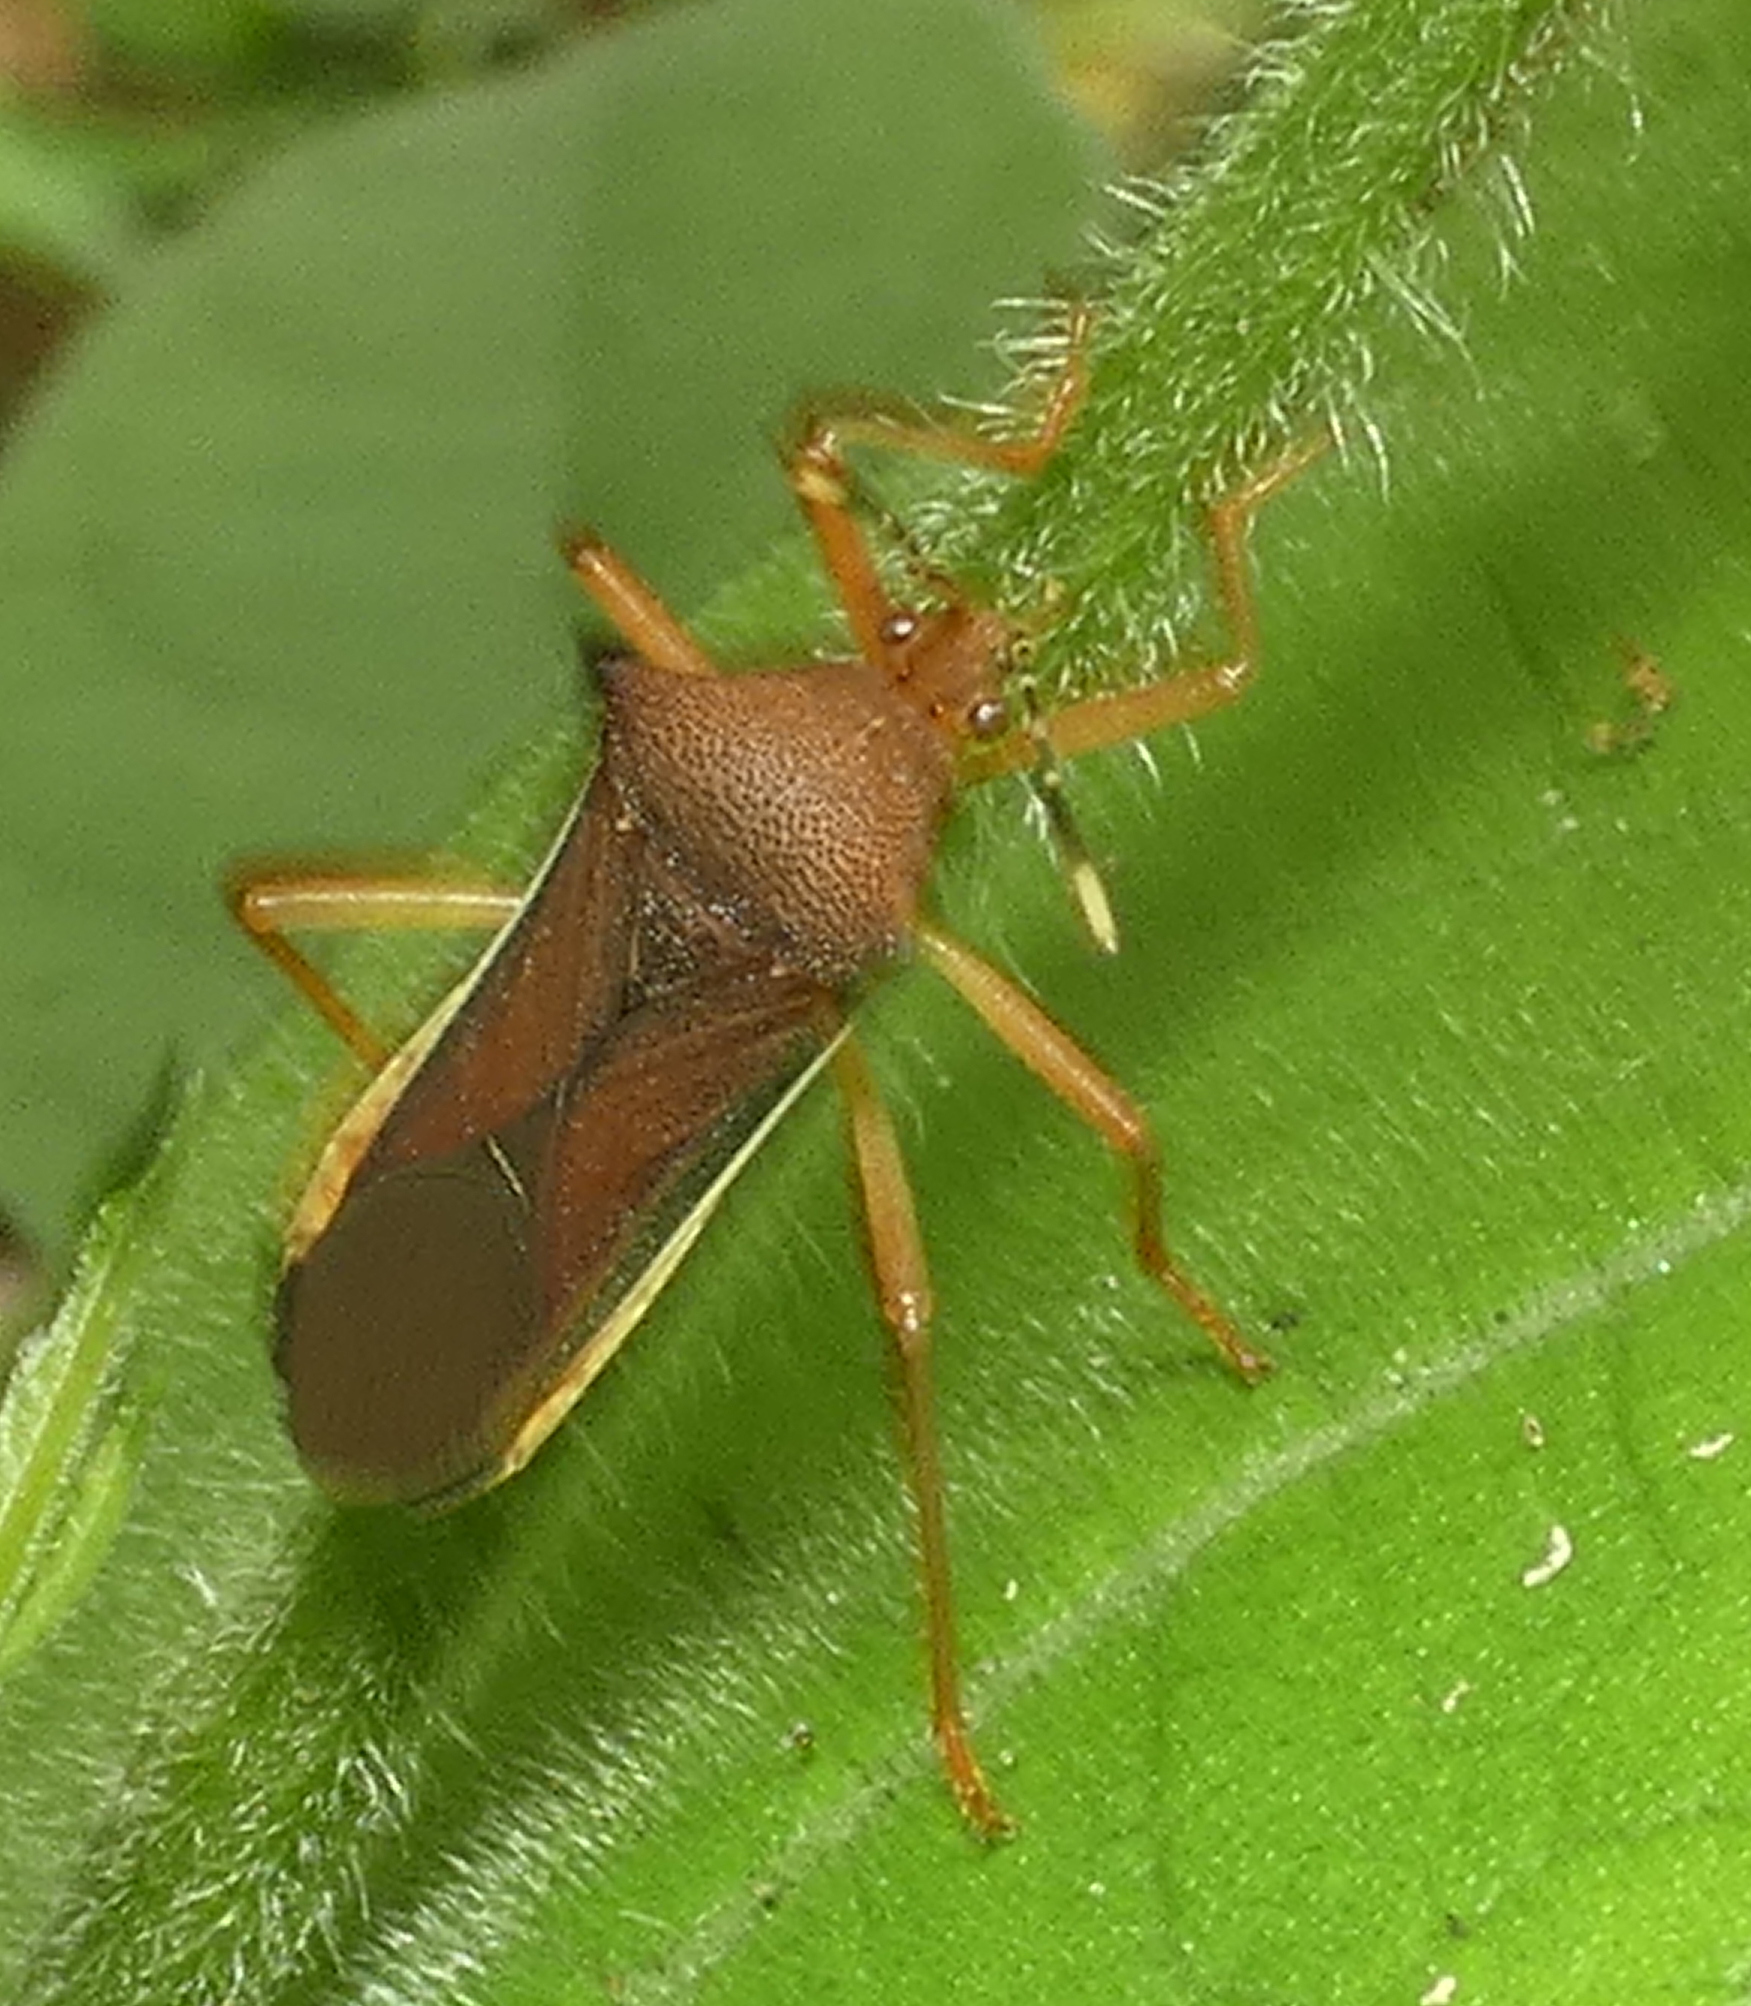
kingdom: Animalia
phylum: Arthropoda
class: Insecta
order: Hemiptera
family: Coreidae
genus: Anasa
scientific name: Anasa varicornis
